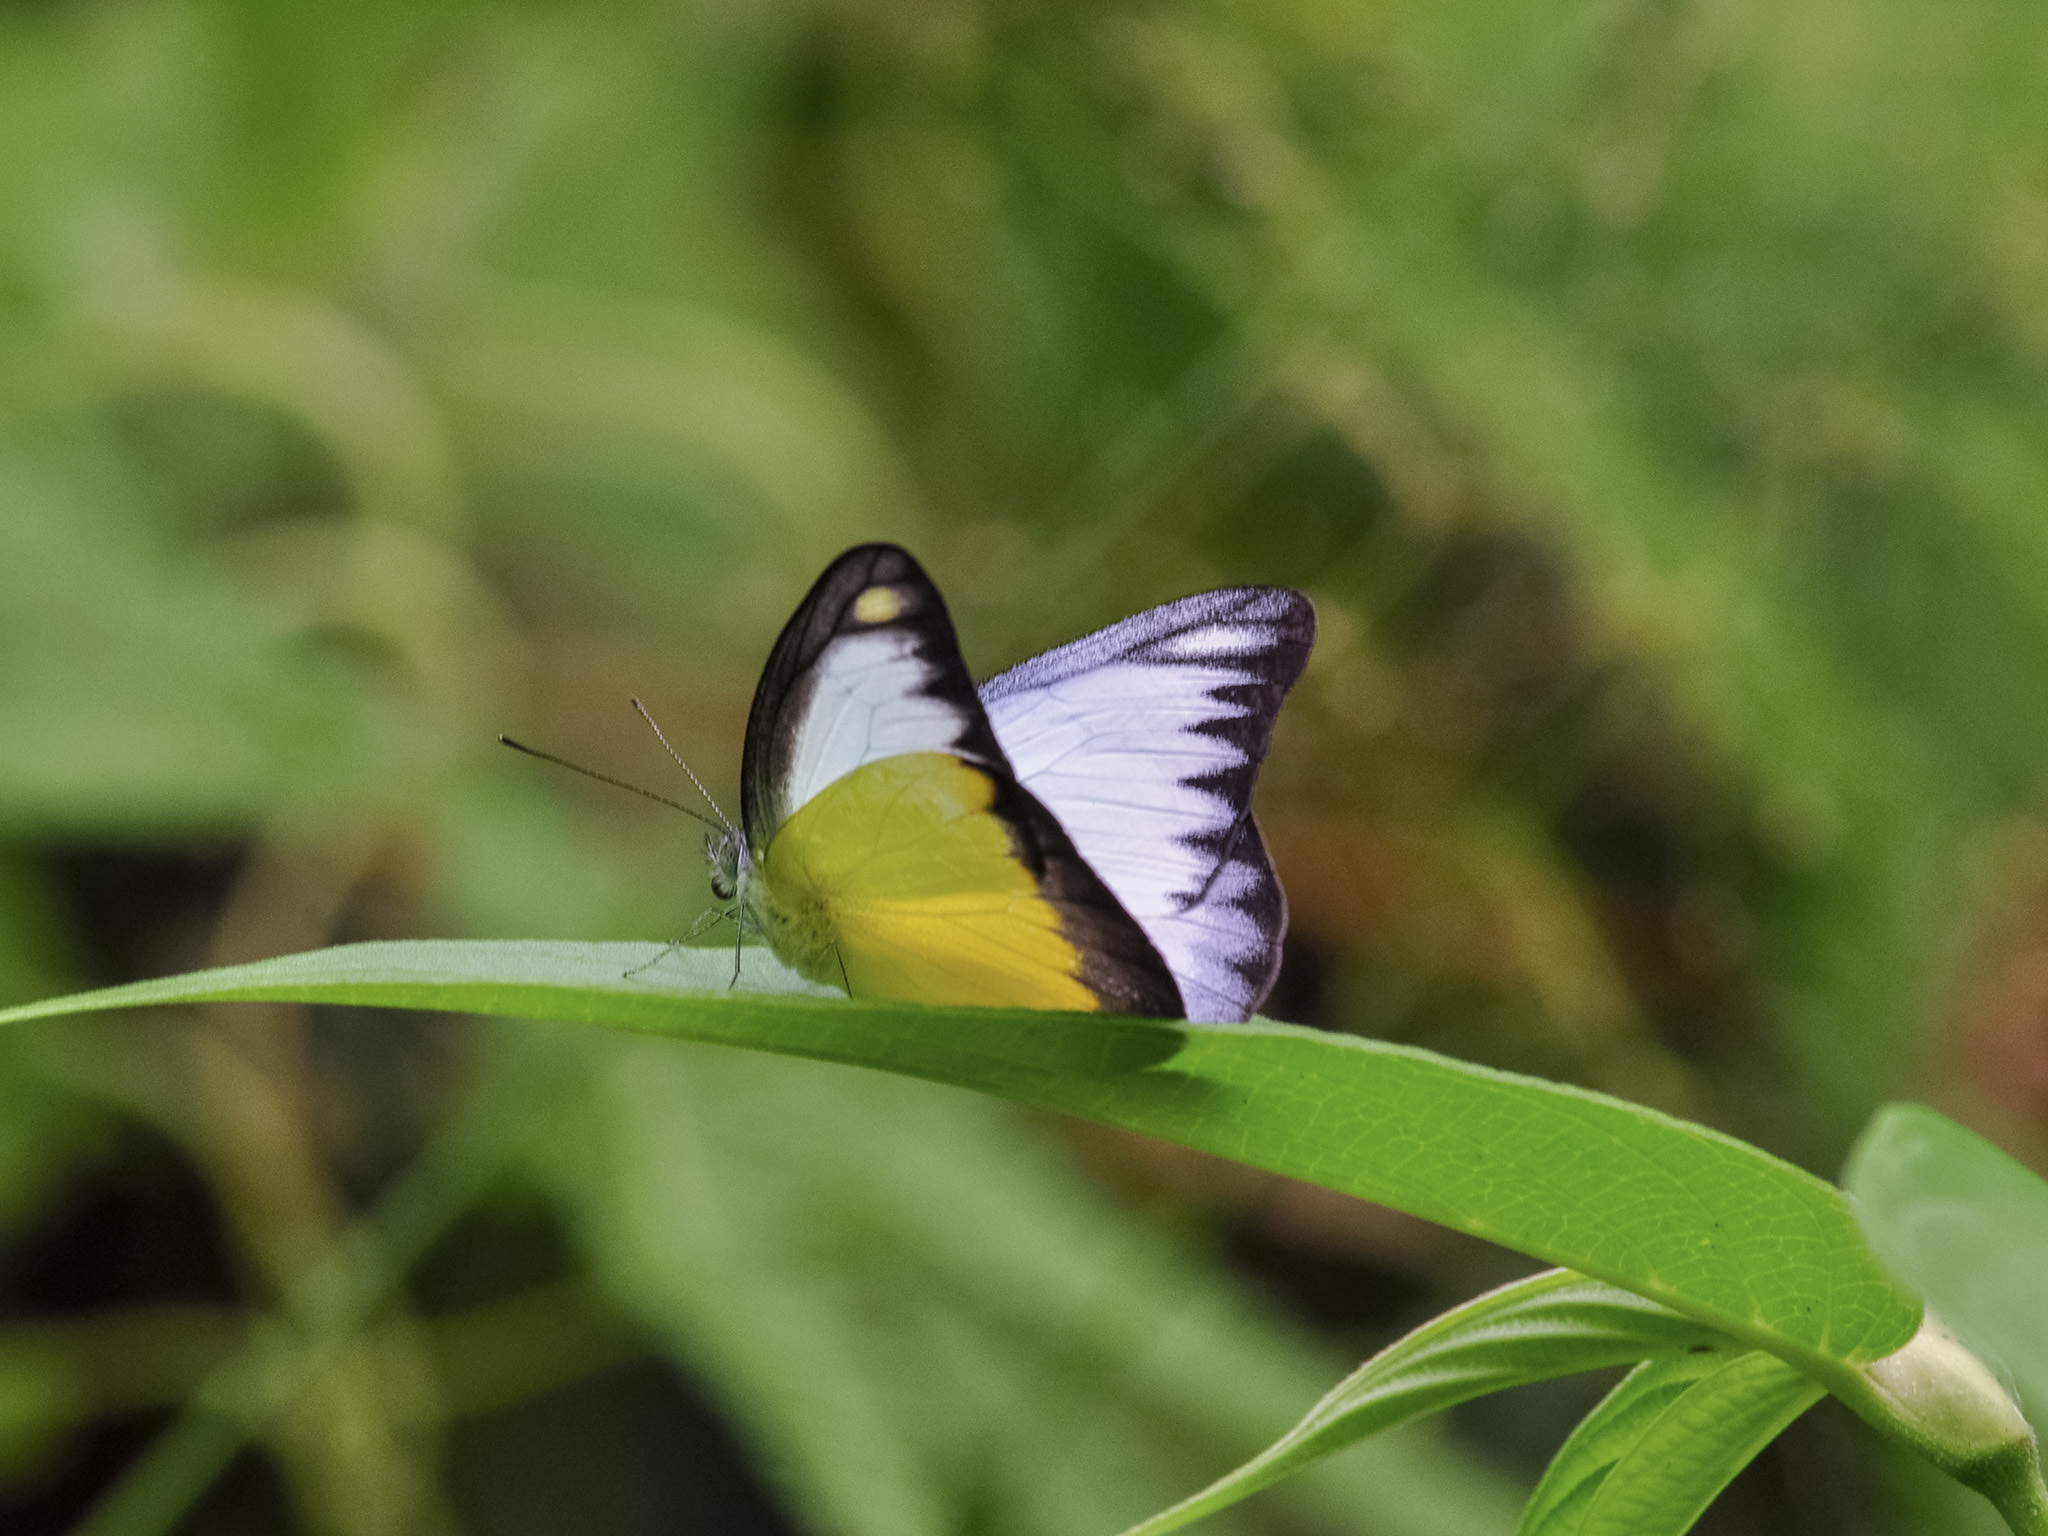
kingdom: Animalia
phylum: Arthropoda
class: Insecta
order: Lepidoptera
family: Pieridae
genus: Appias
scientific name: Appias lyncida
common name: Chocolate albatross
